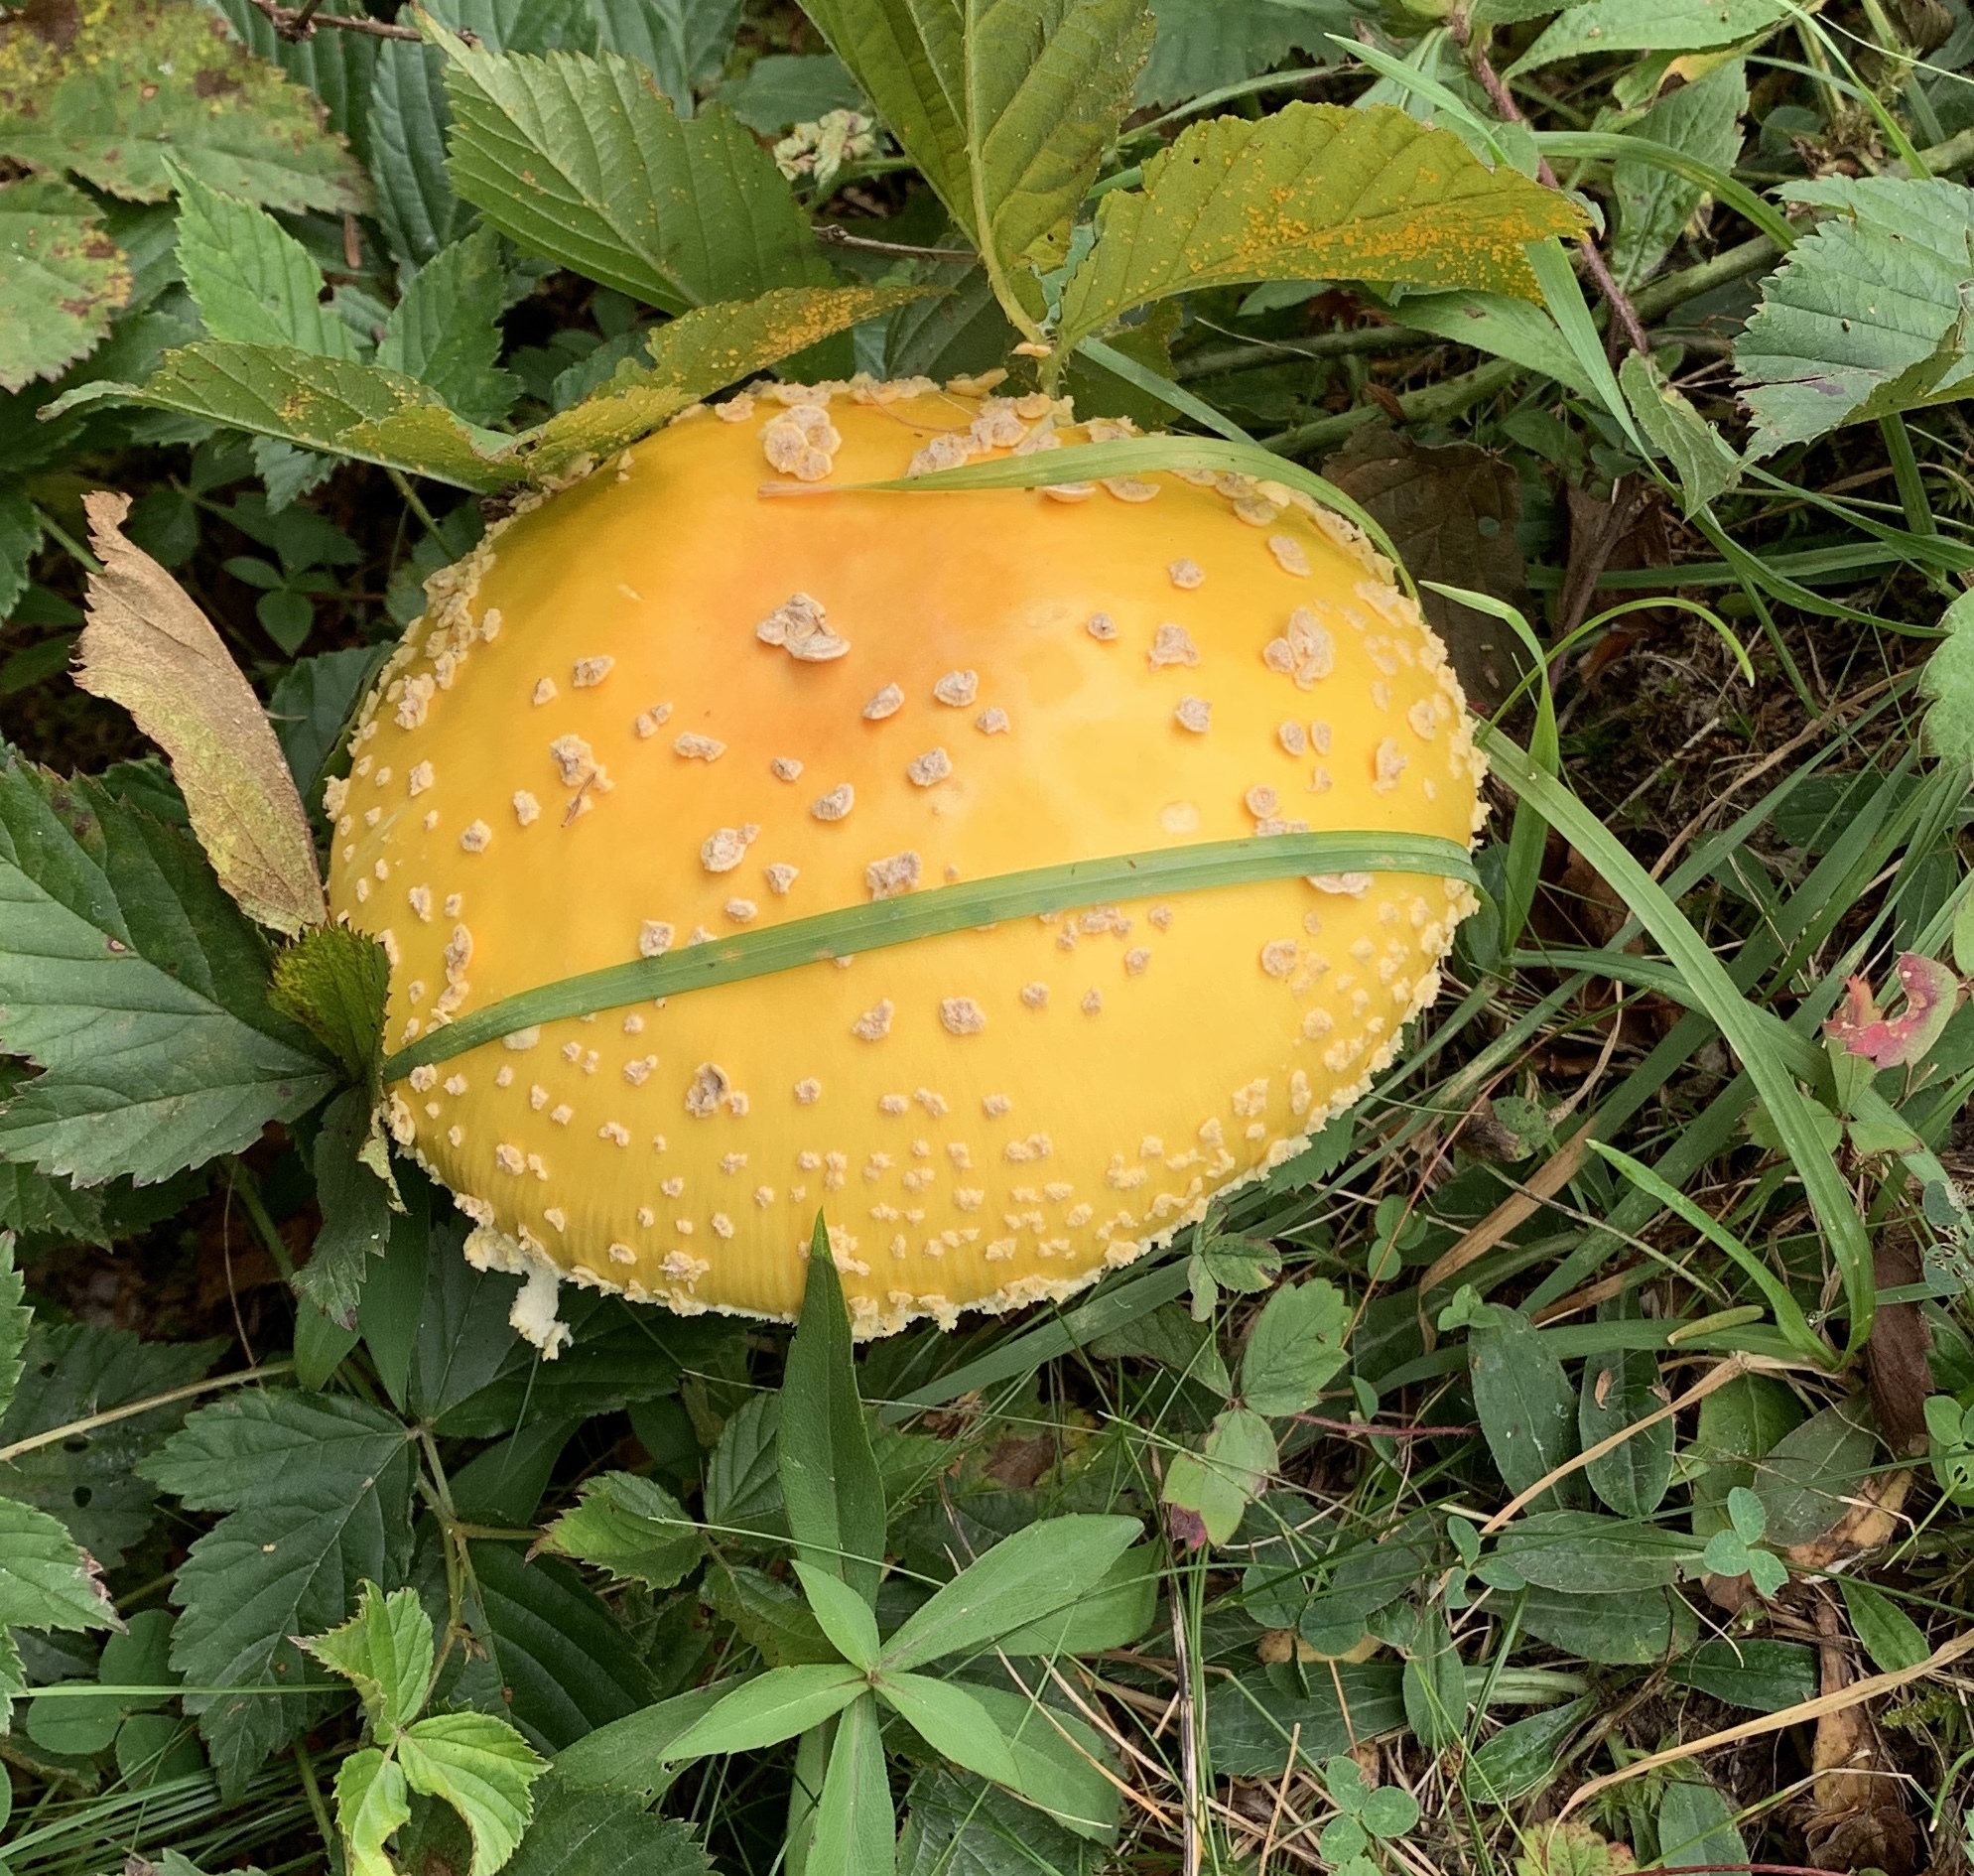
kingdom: Fungi
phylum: Basidiomycota
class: Agaricomycetes
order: Agaricales
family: Amanitaceae
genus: Amanita
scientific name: Amanita muscaria
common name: Fly agaric
